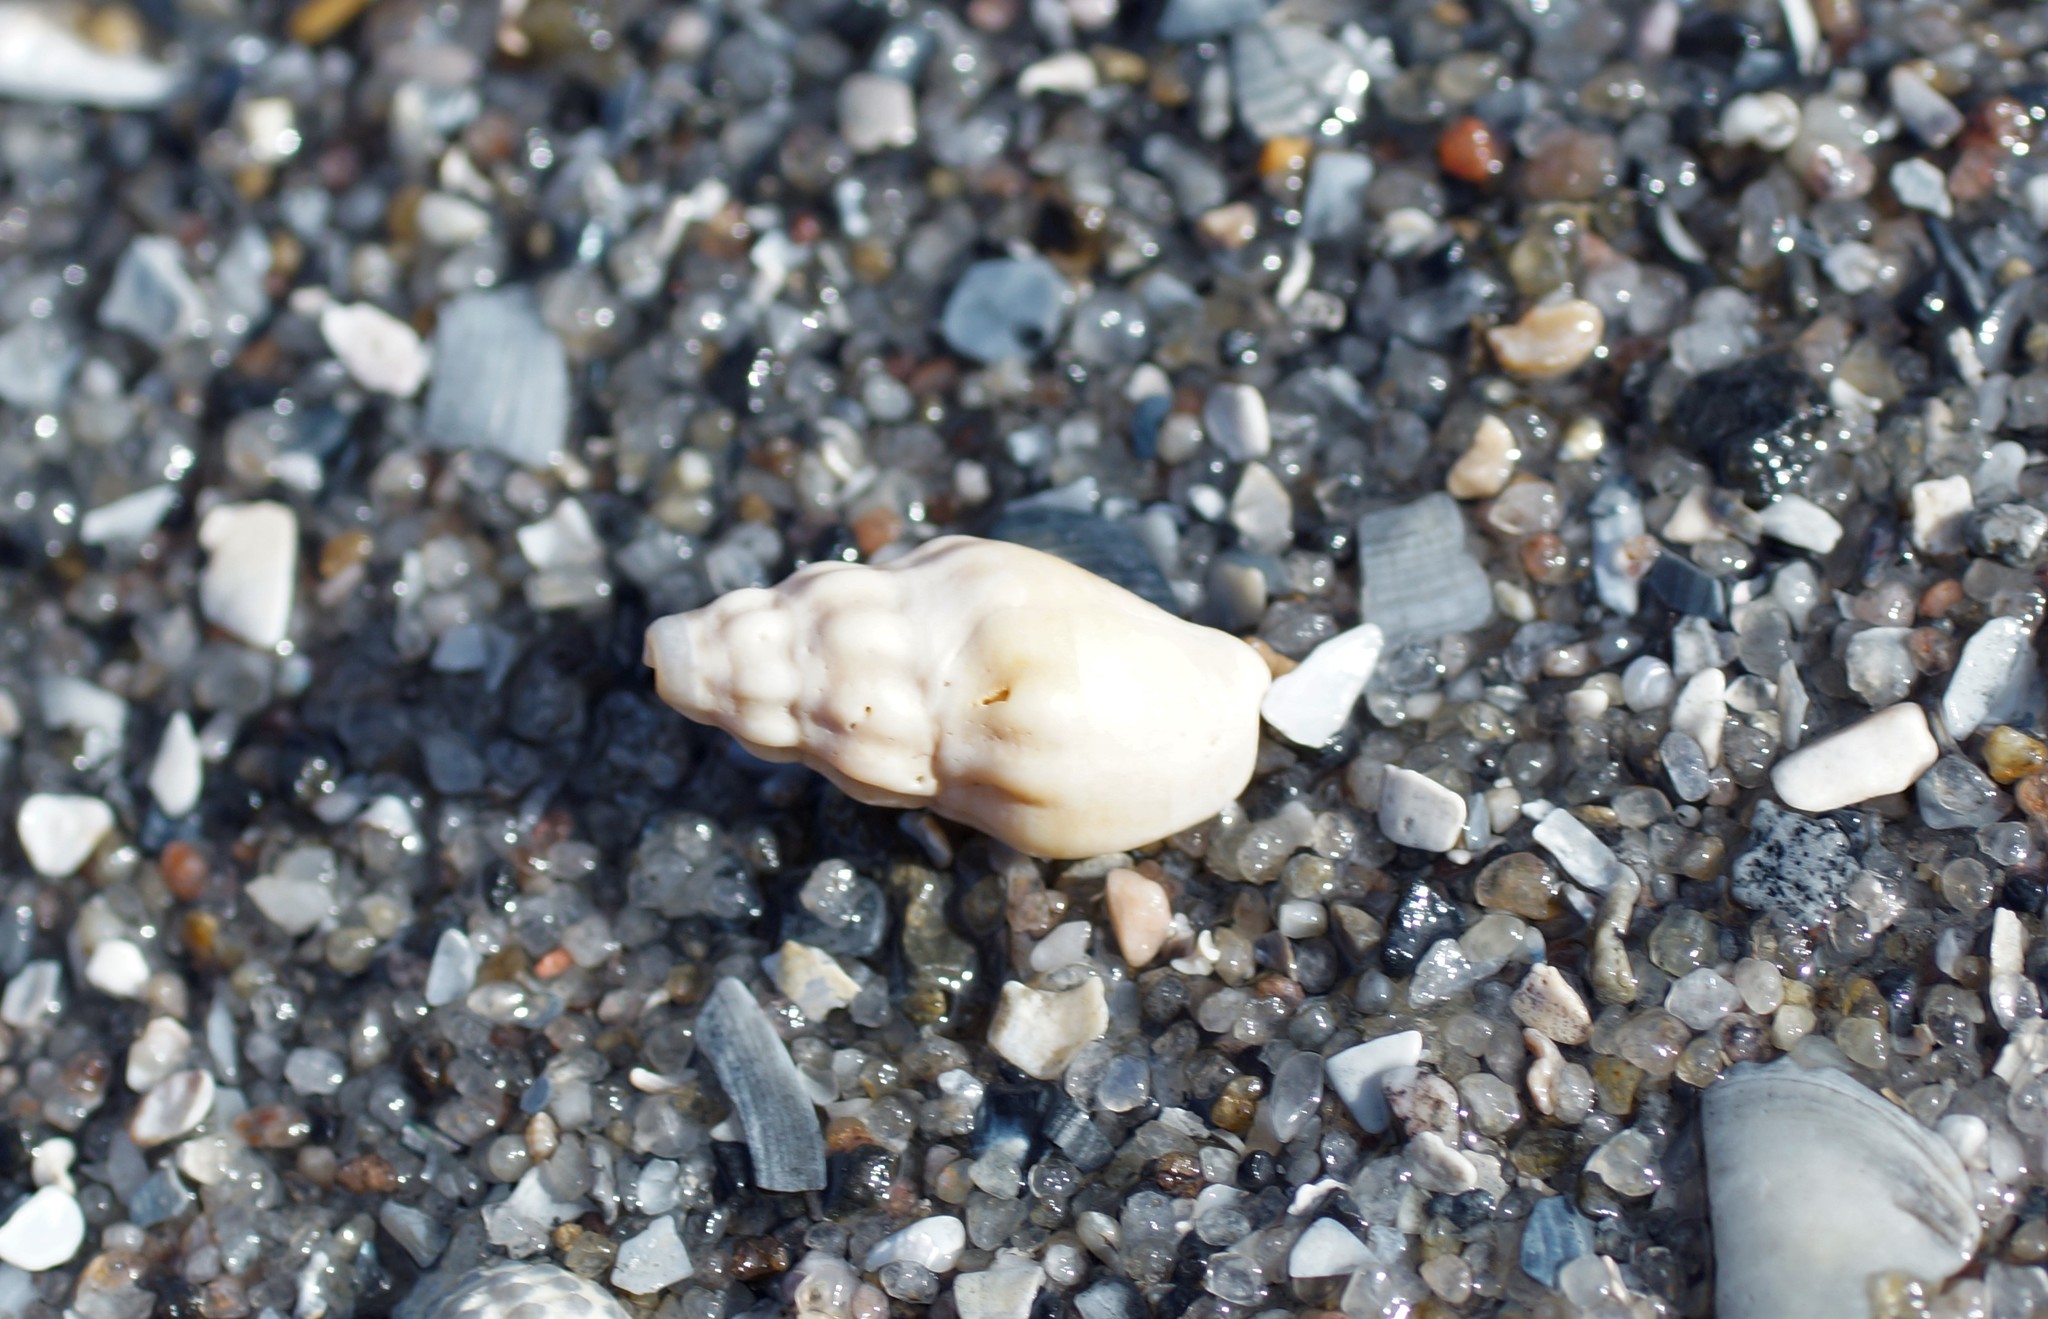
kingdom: Animalia
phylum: Mollusca
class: Gastropoda
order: Neogastropoda
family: Cominellidae
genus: Cominella
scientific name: Cominella eburnea
